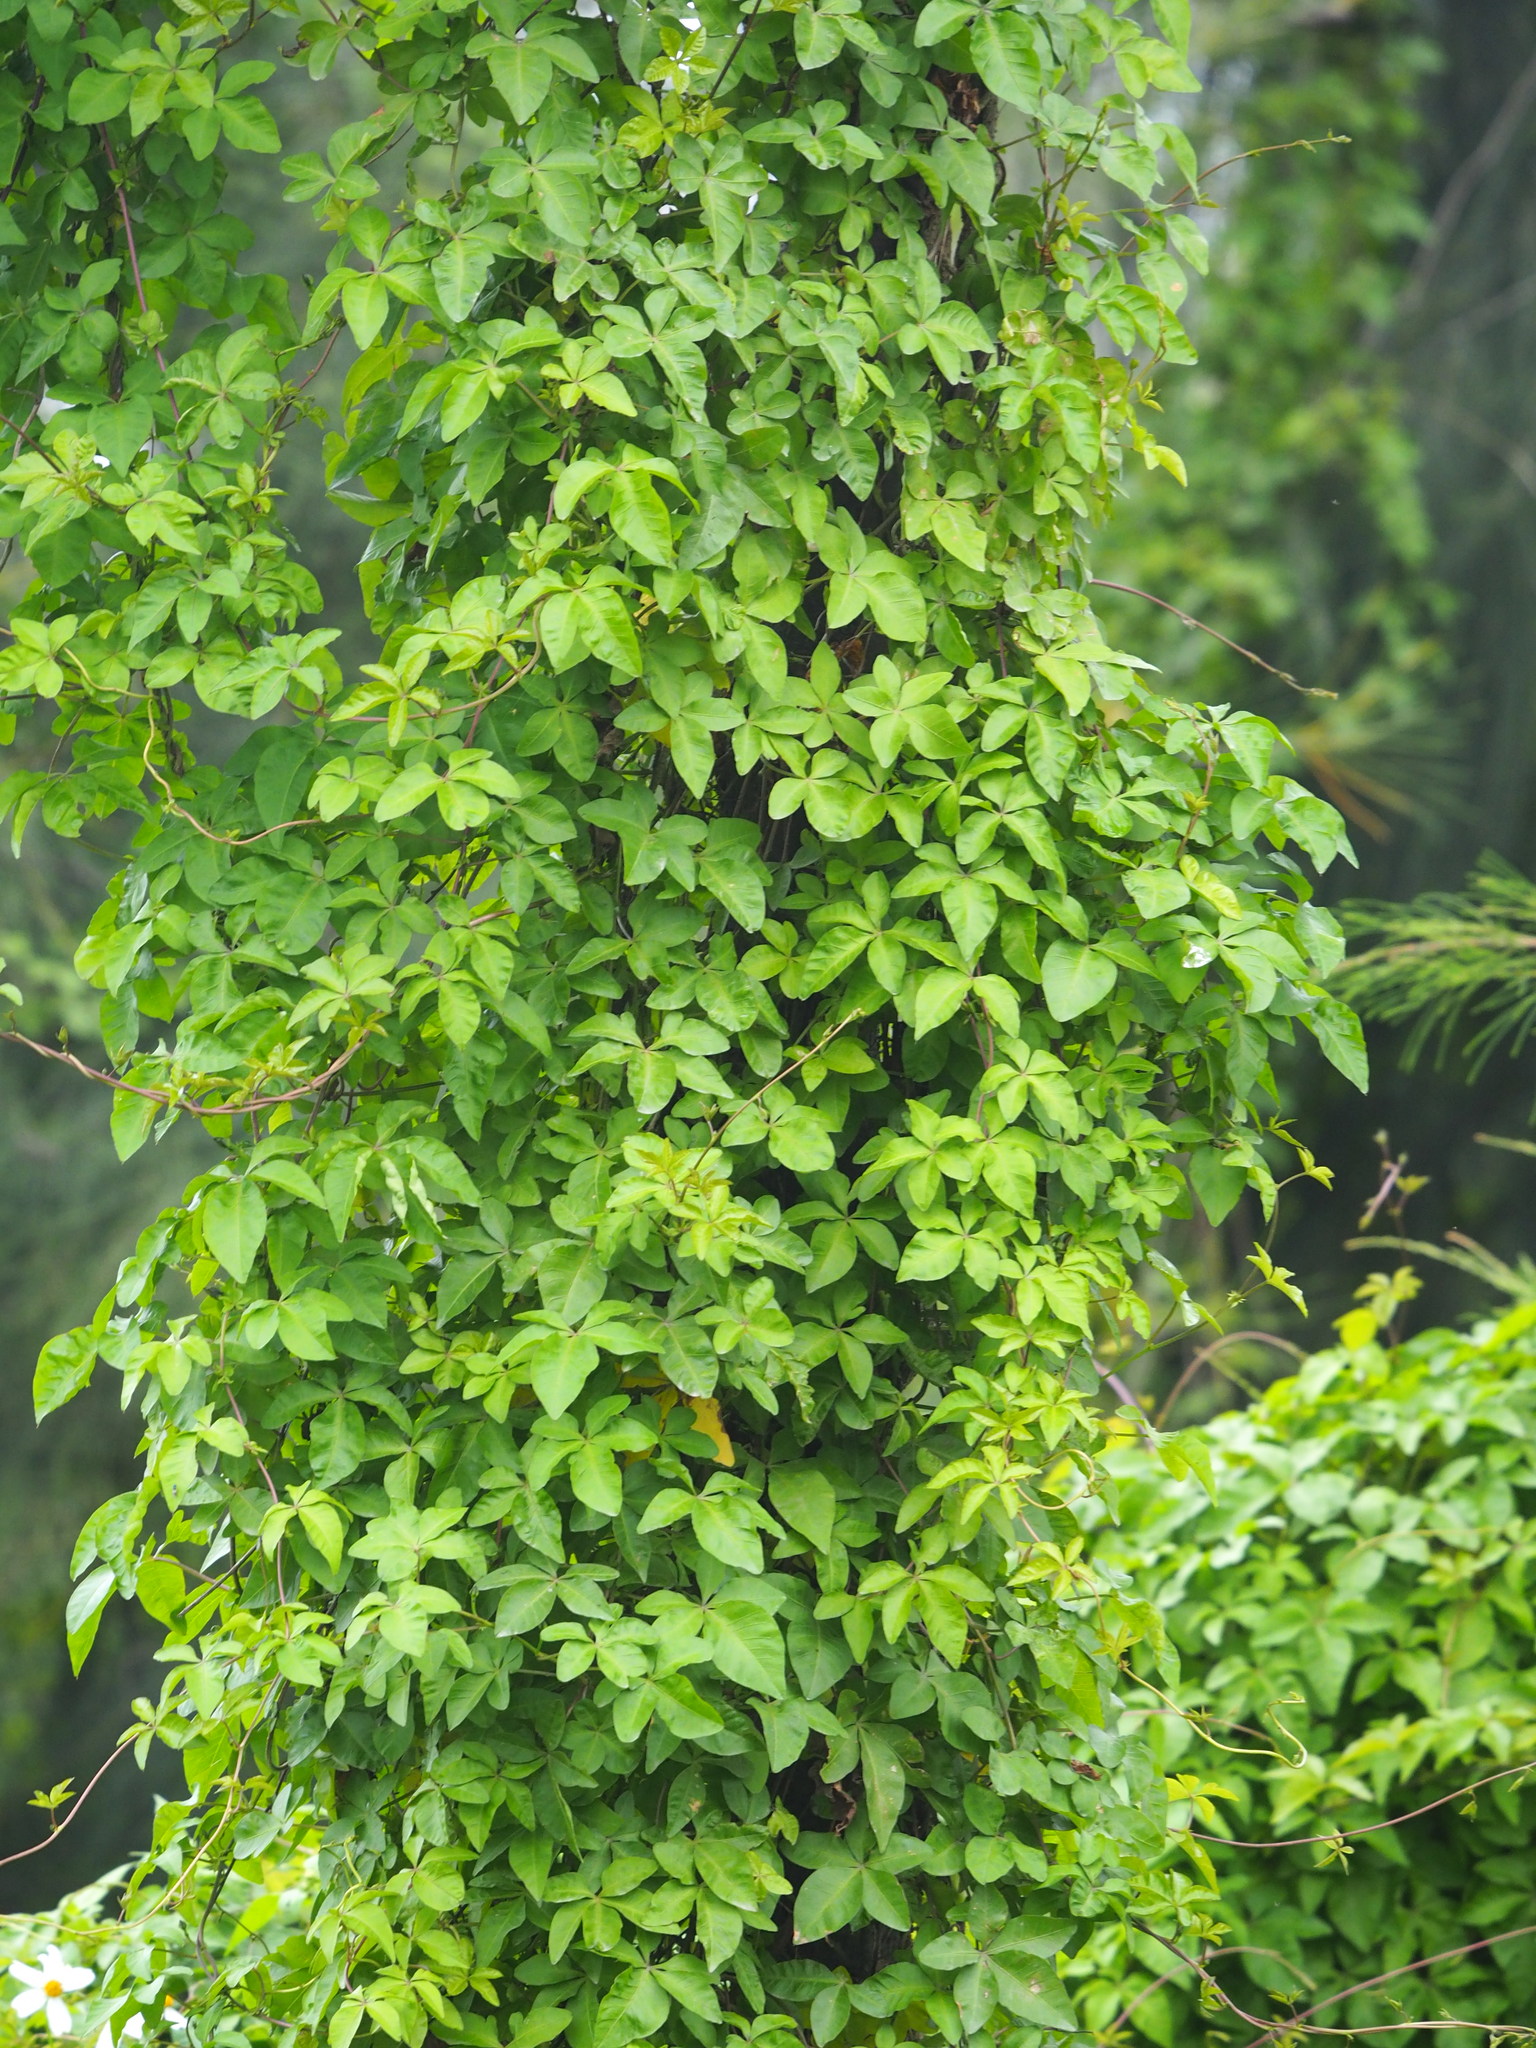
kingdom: Plantae
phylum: Tracheophyta
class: Magnoliopsida
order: Solanales
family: Convolvulaceae
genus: Ipomoea
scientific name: Ipomoea cairica
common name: Mile a minute vine
